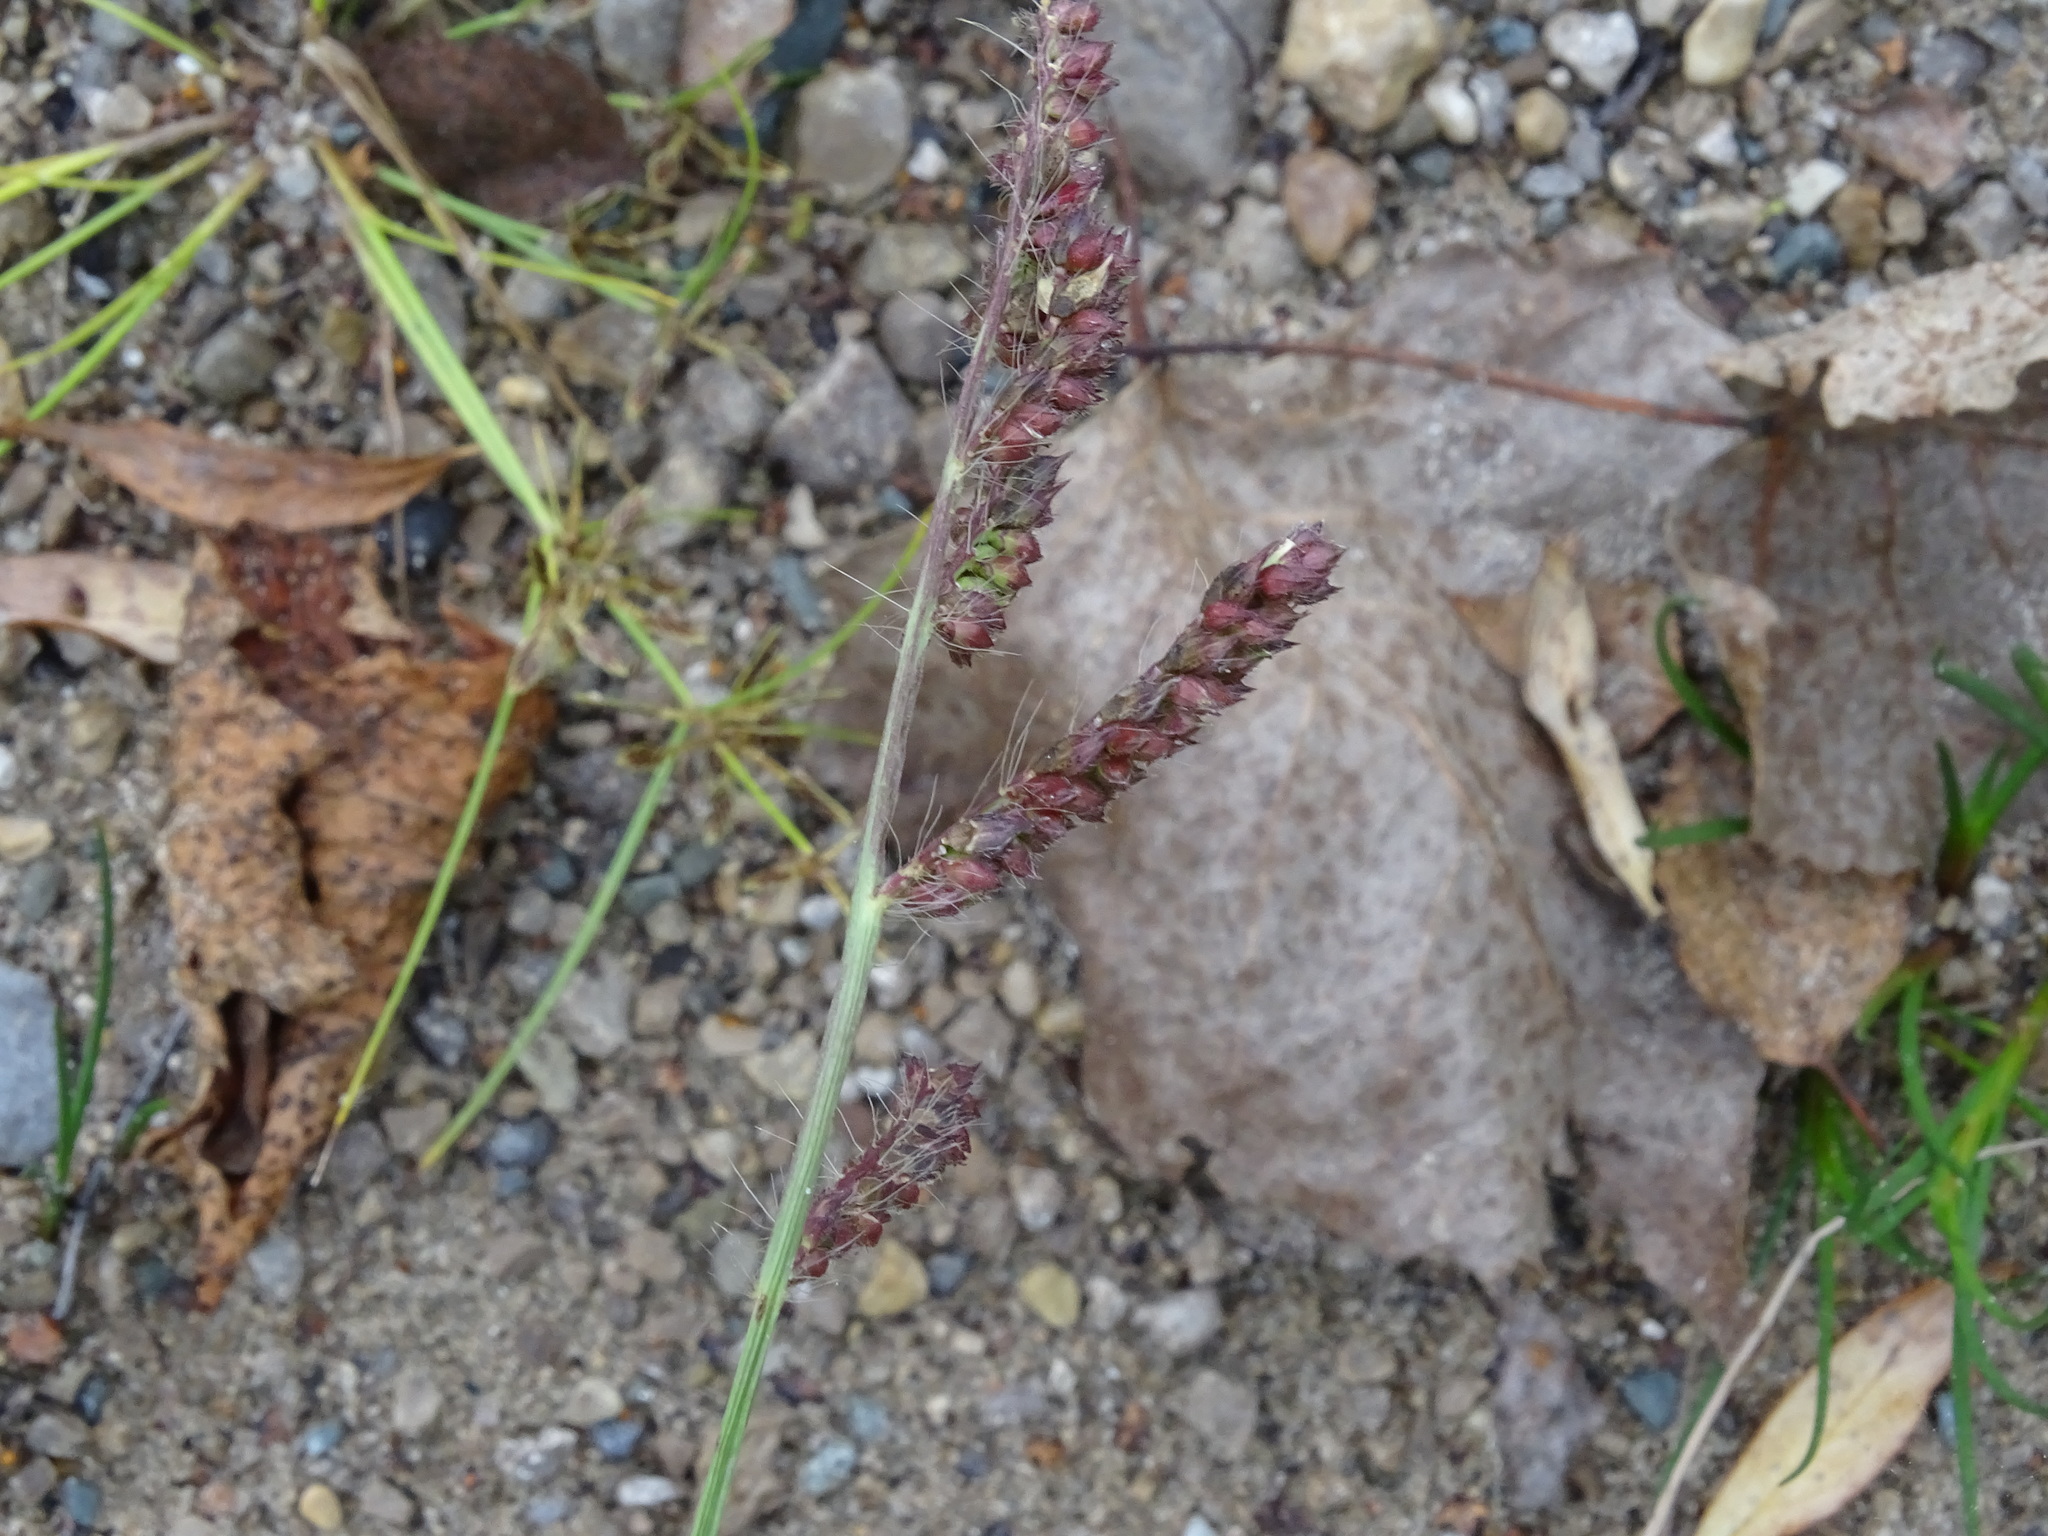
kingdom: Plantae
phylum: Tracheophyta
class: Liliopsida
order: Poales
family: Poaceae
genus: Echinochloa
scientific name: Echinochloa crus-galli
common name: Cockspur
